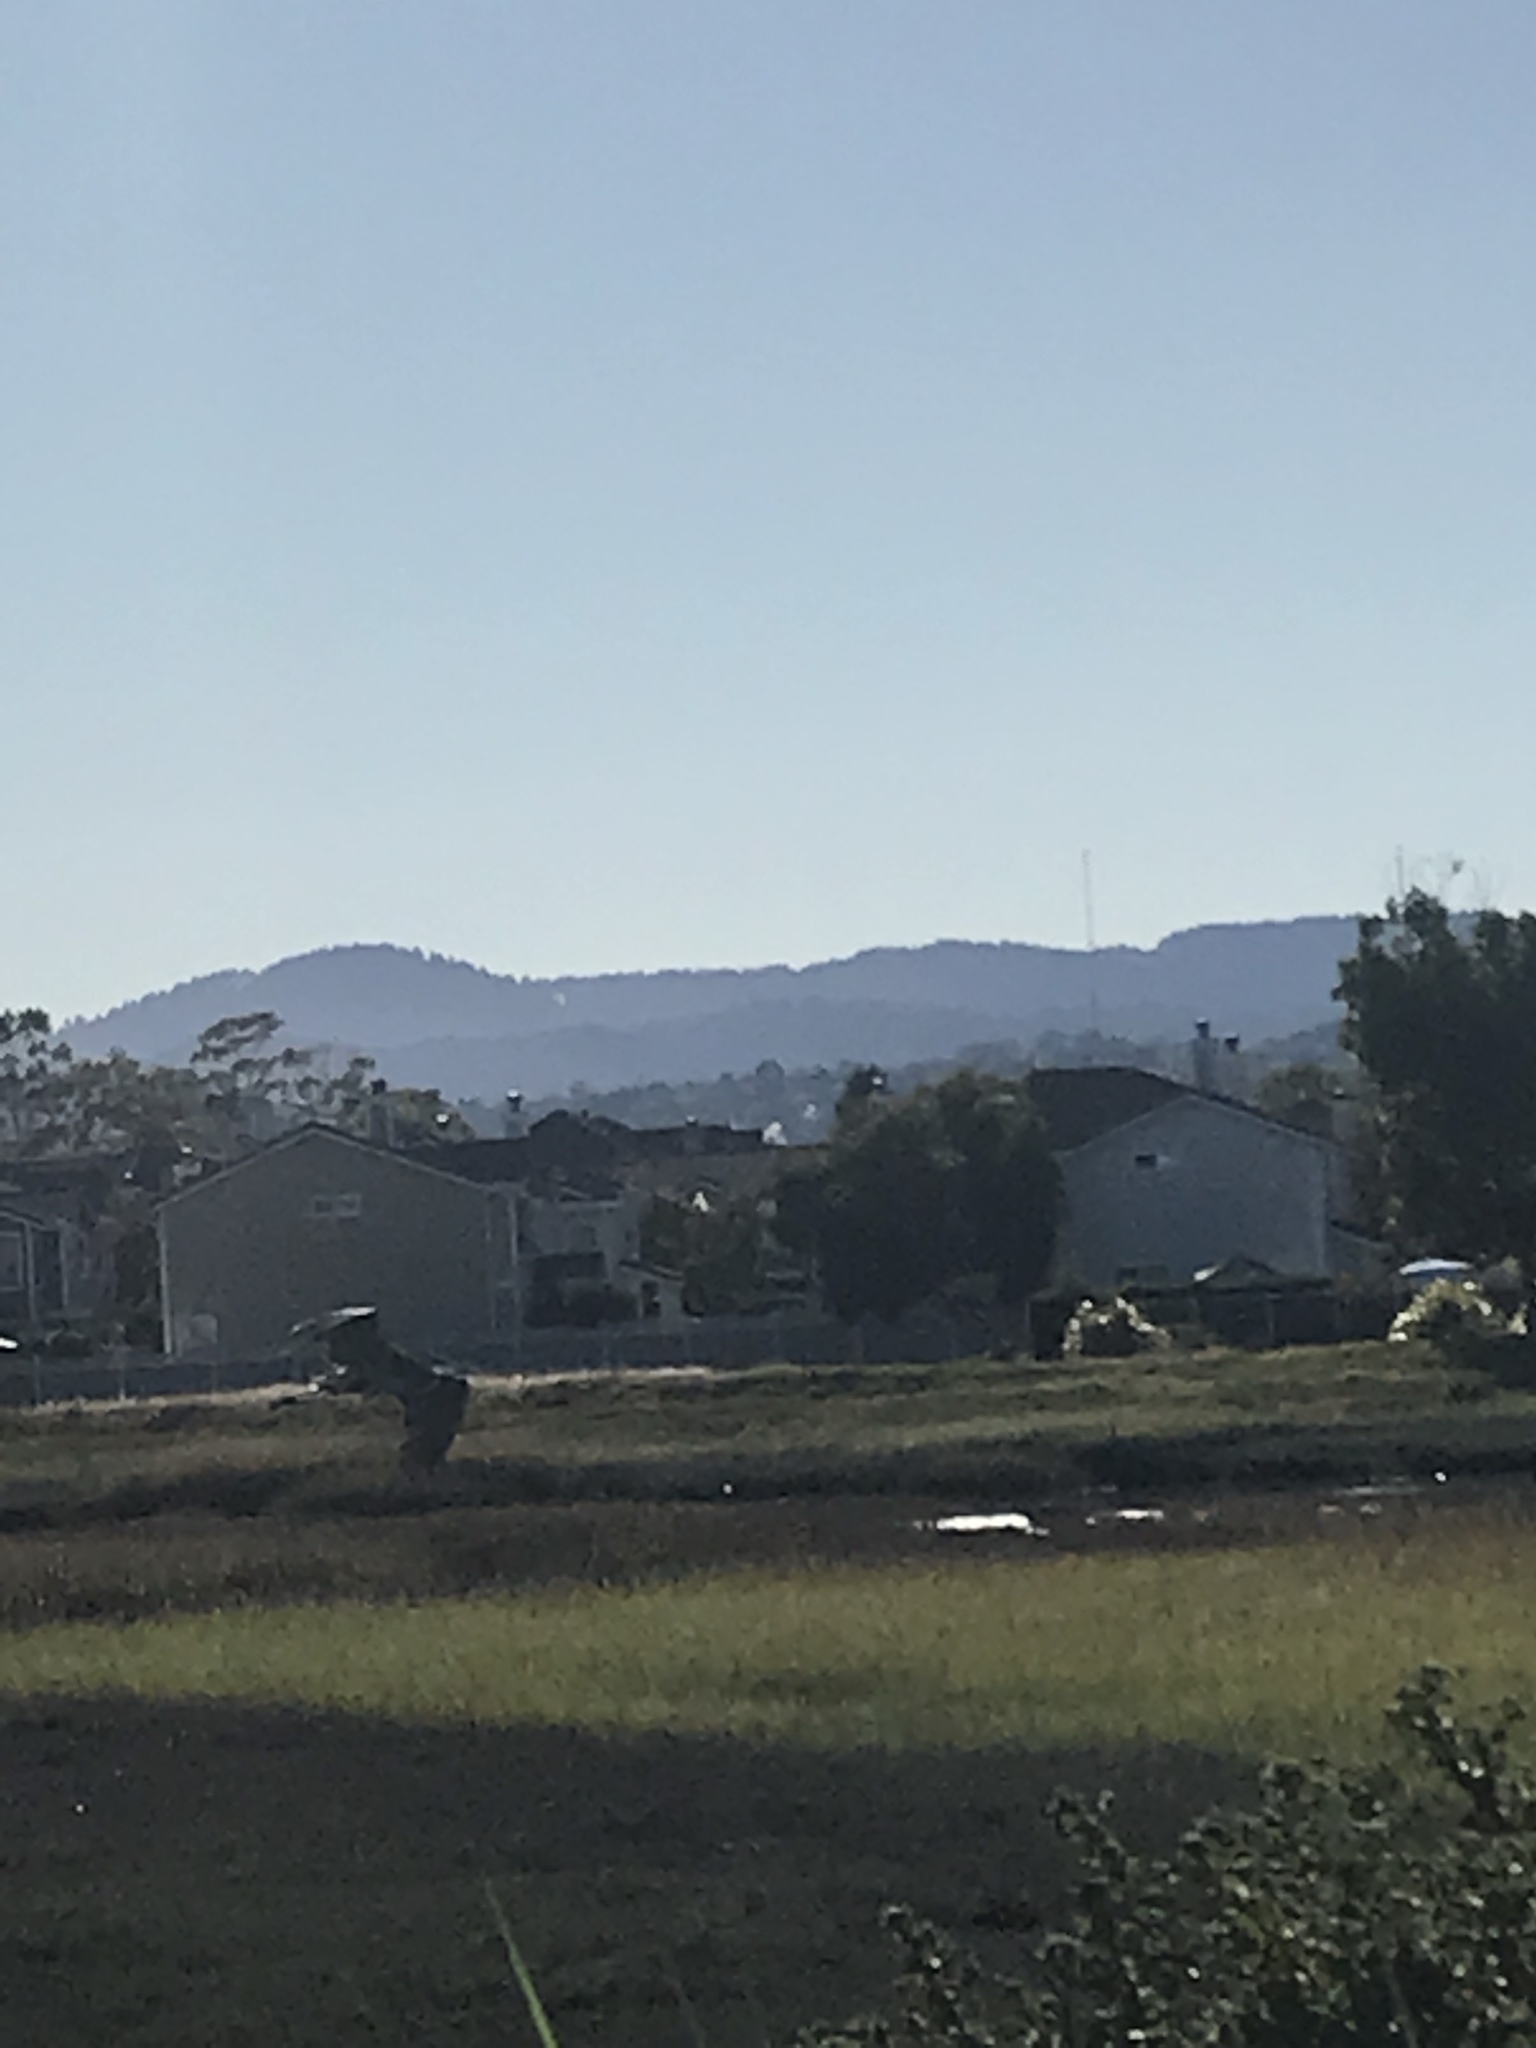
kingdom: Animalia
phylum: Chordata
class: Aves
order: Pelecaniformes
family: Ardeidae
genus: Ardea
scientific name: Ardea herodias
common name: Great blue heron
